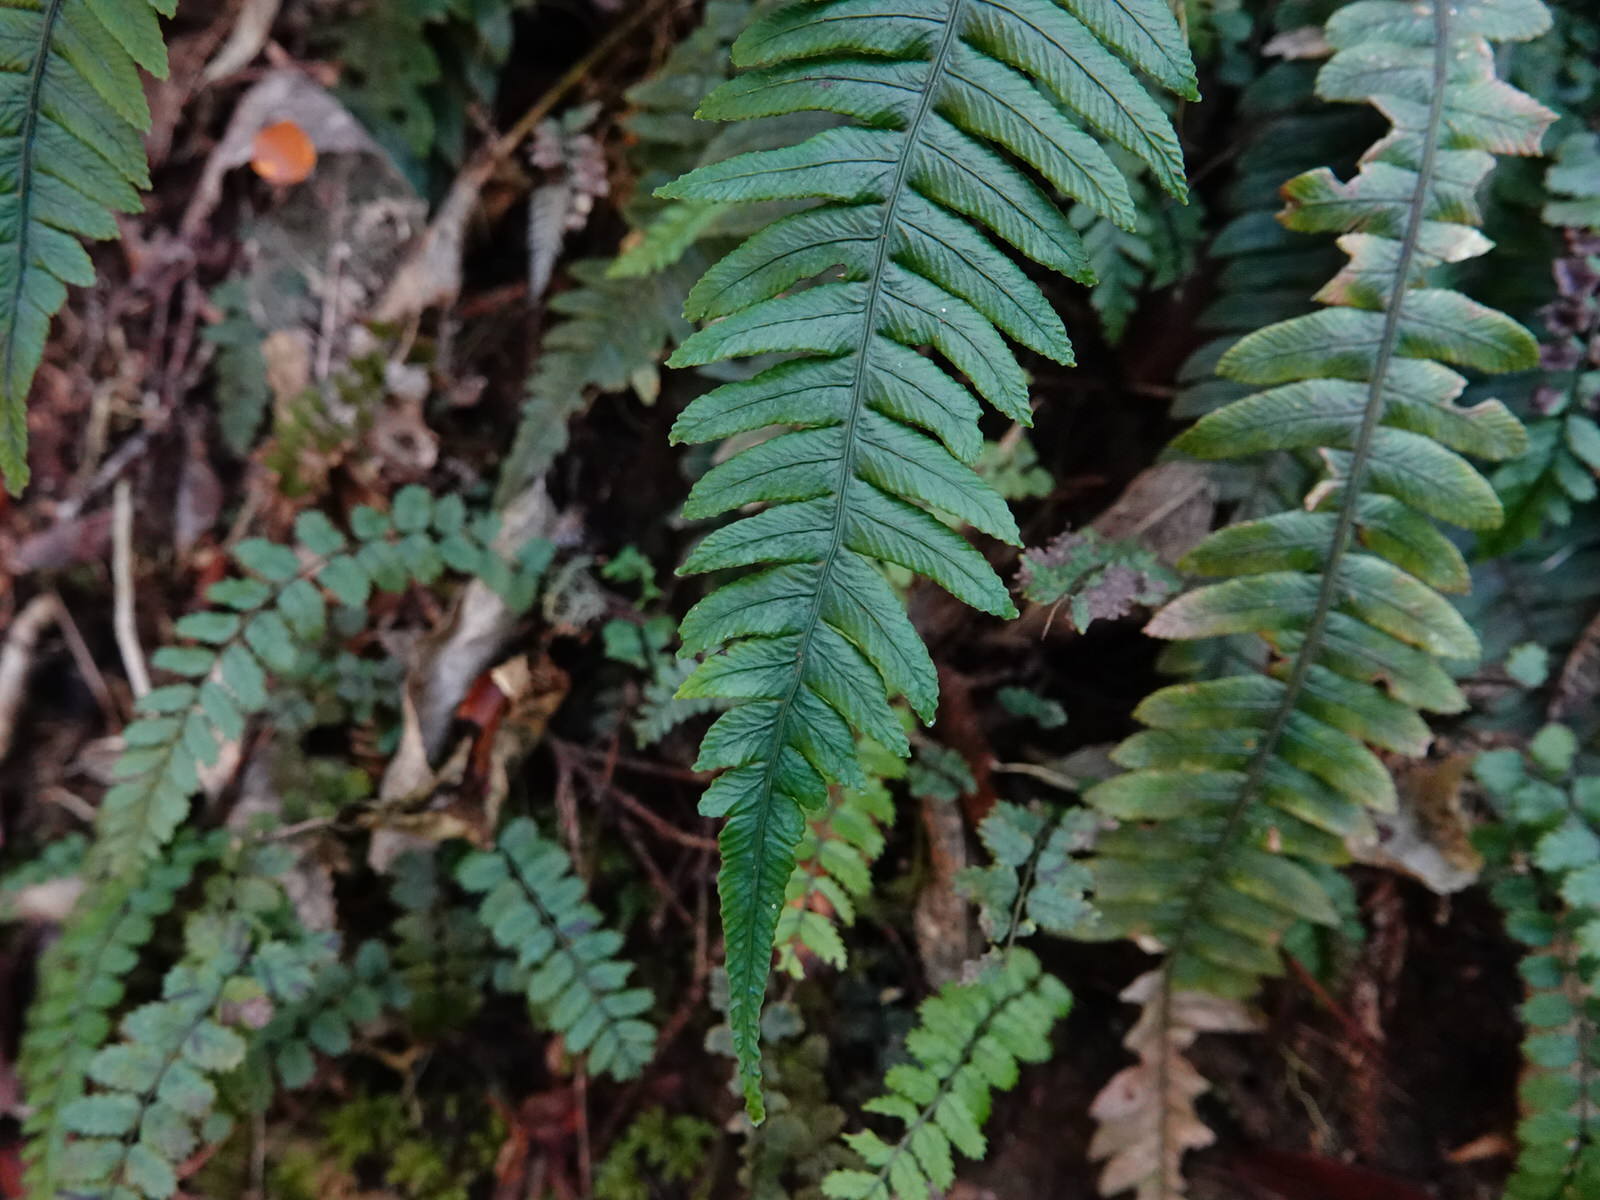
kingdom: Plantae
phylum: Tracheophyta
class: Polypodiopsida
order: Polypodiales
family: Blechnaceae
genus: Austroblechnum
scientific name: Austroblechnum lanceolatum
